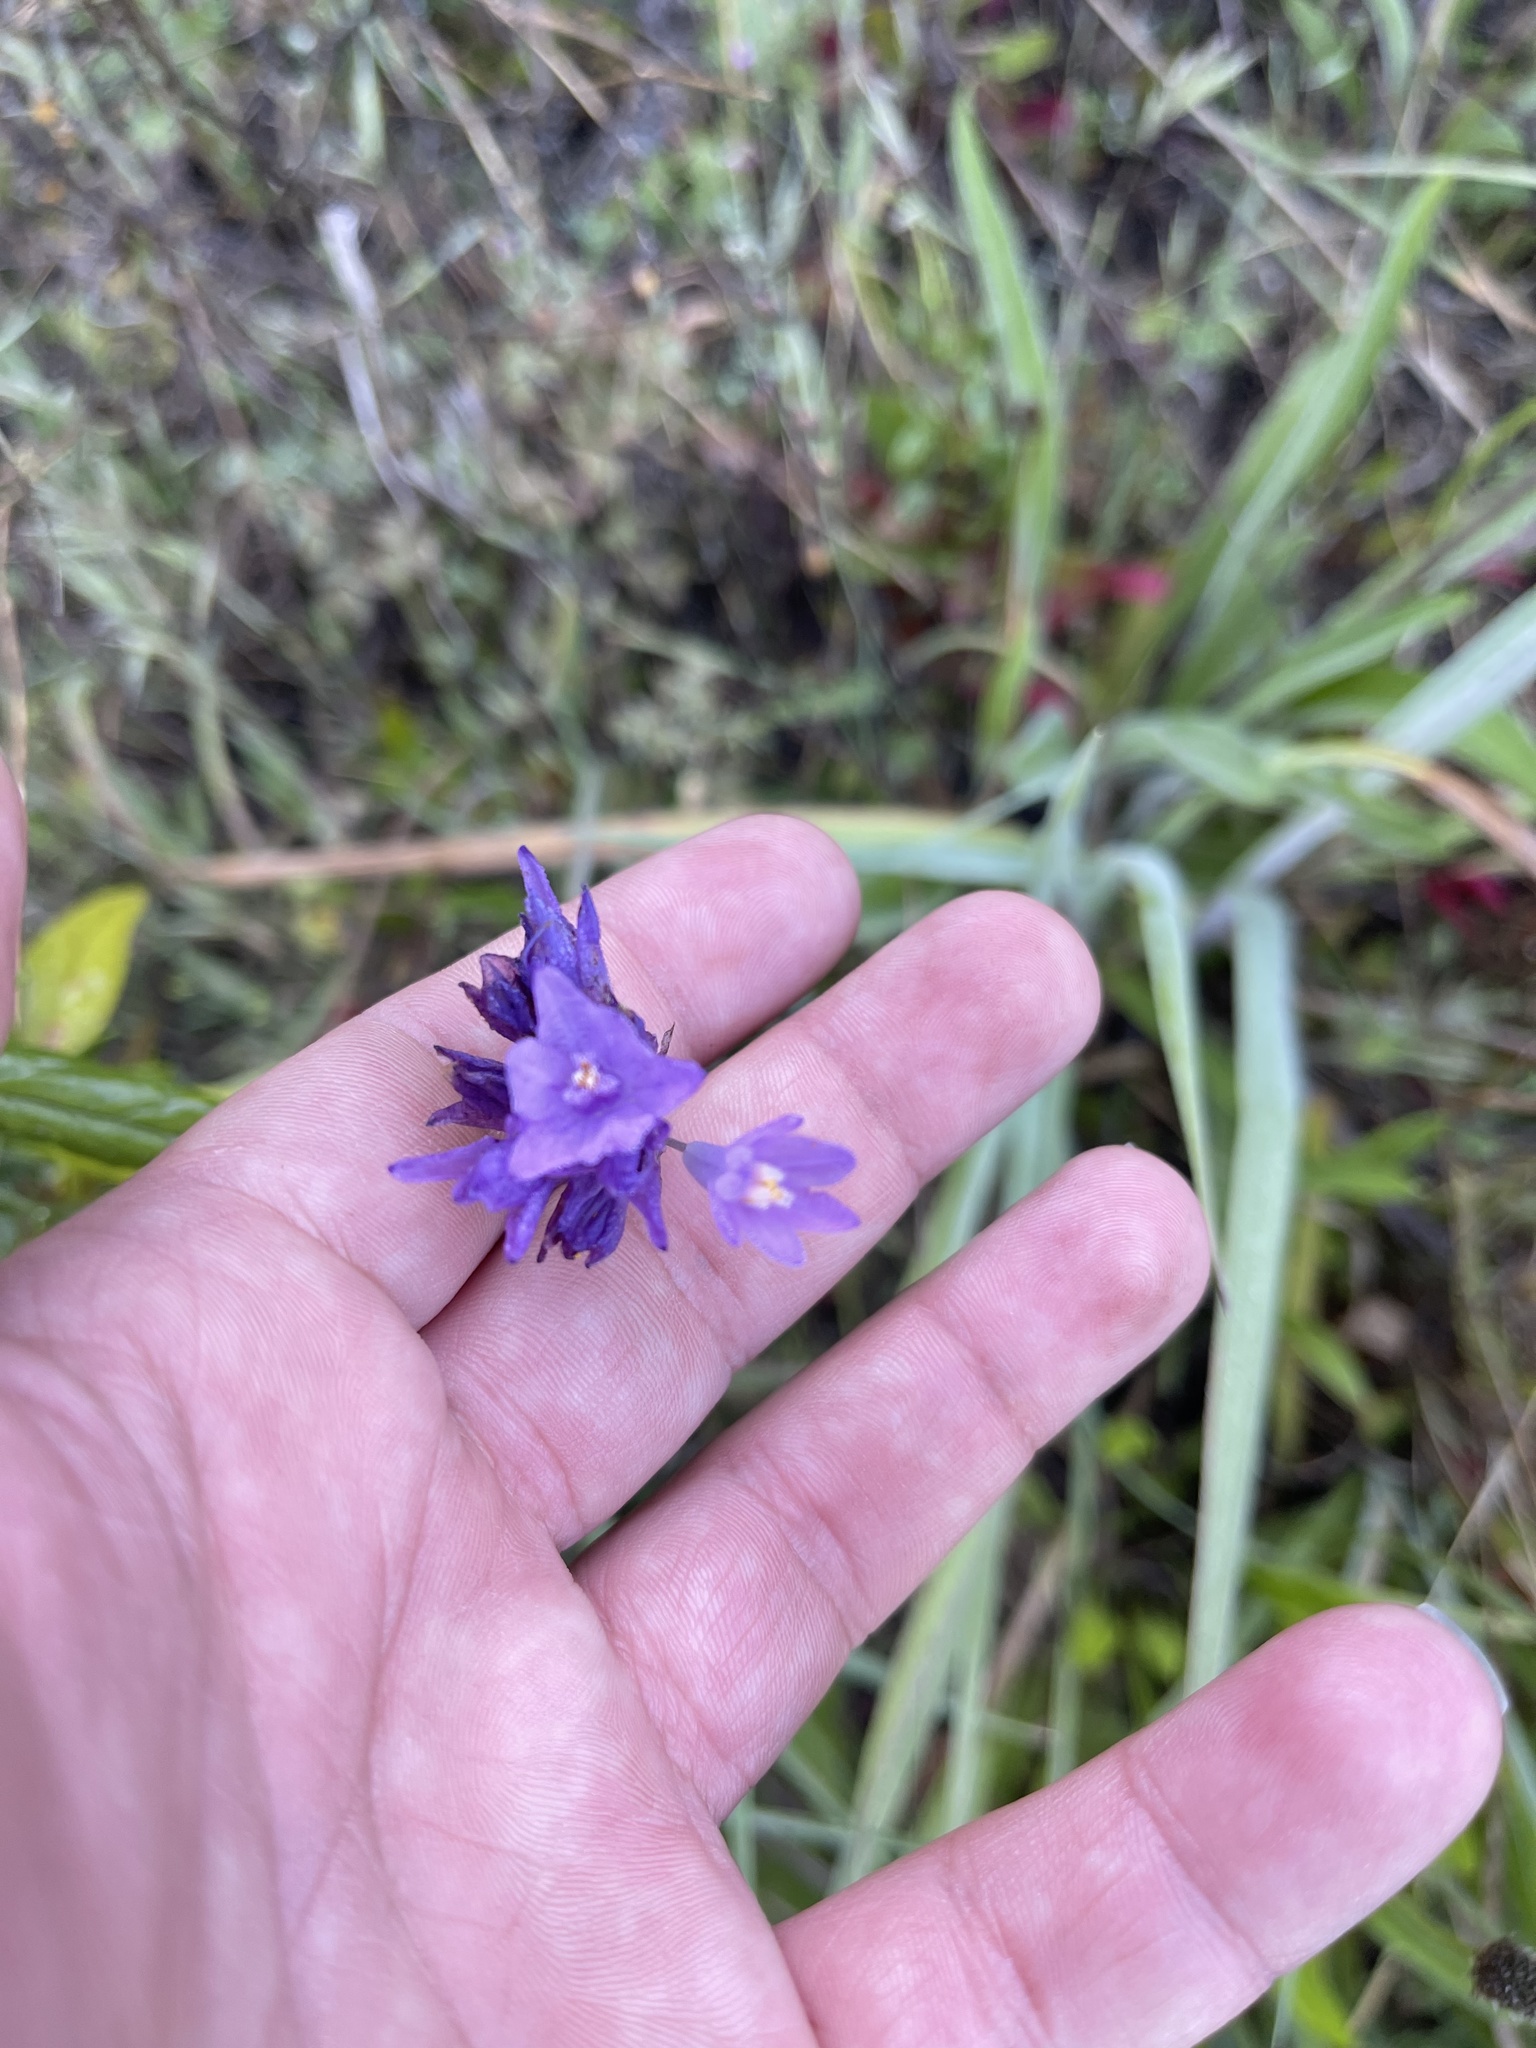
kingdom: Plantae
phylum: Tracheophyta
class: Liliopsida
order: Asparagales
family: Asparagaceae
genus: Dipterostemon
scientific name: Dipterostemon capitatus
